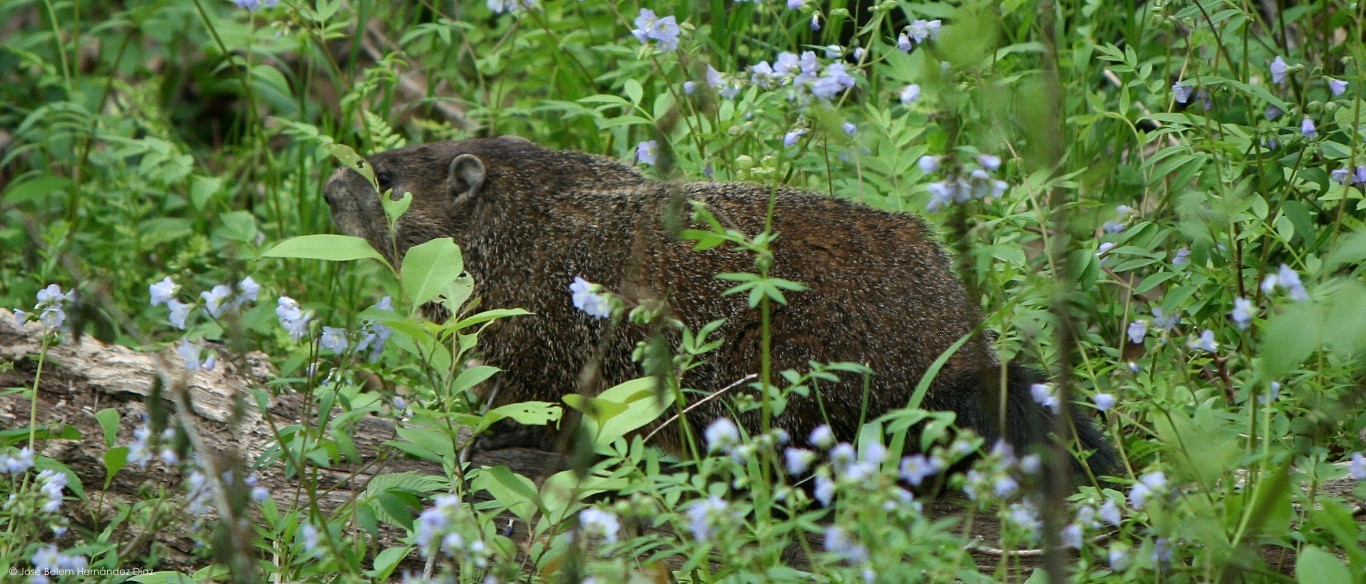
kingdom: Animalia
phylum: Chordata
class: Mammalia
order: Rodentia
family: Sciuridae
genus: Marmota
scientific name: Marmota monax
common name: Groundhog
